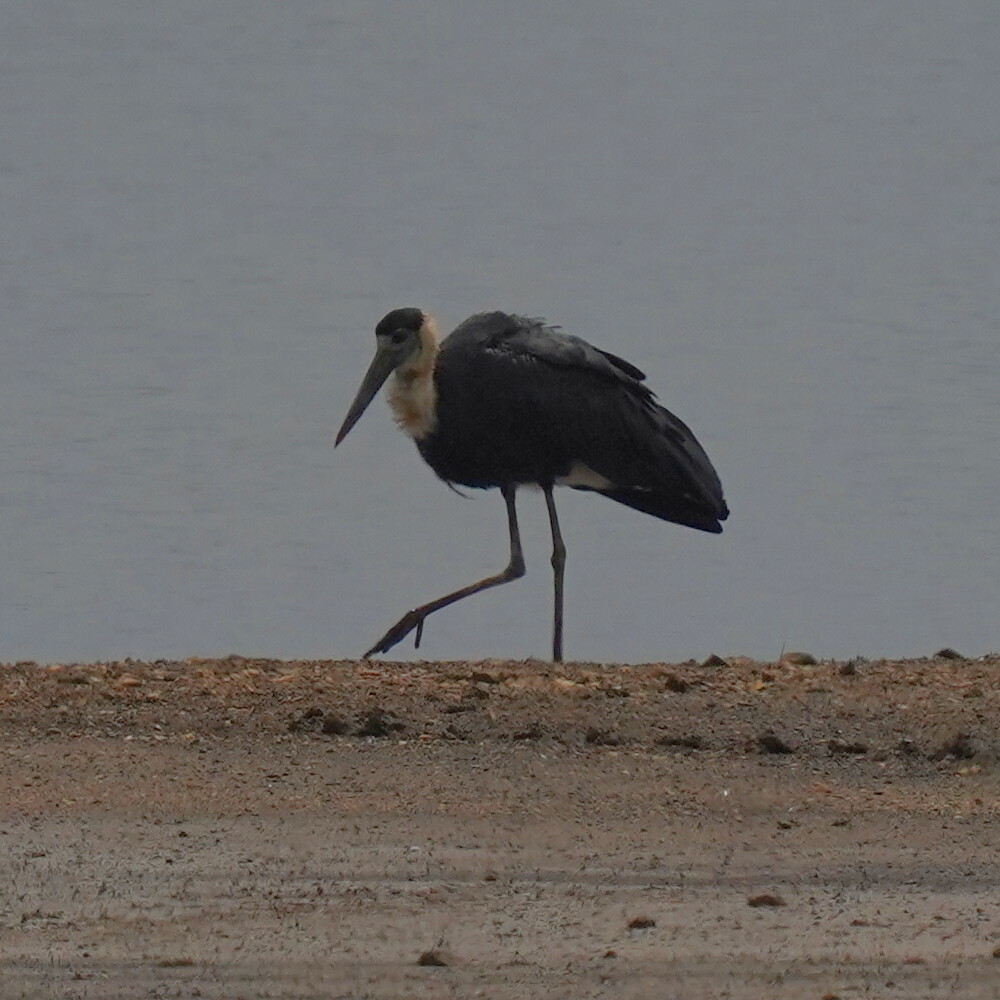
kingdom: Animalia
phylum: Chordata
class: Aves
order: Ciconiiformes
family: Ciconiidae
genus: Ciconia
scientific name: Ciconia episcopus
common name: Woolly-necked stork
